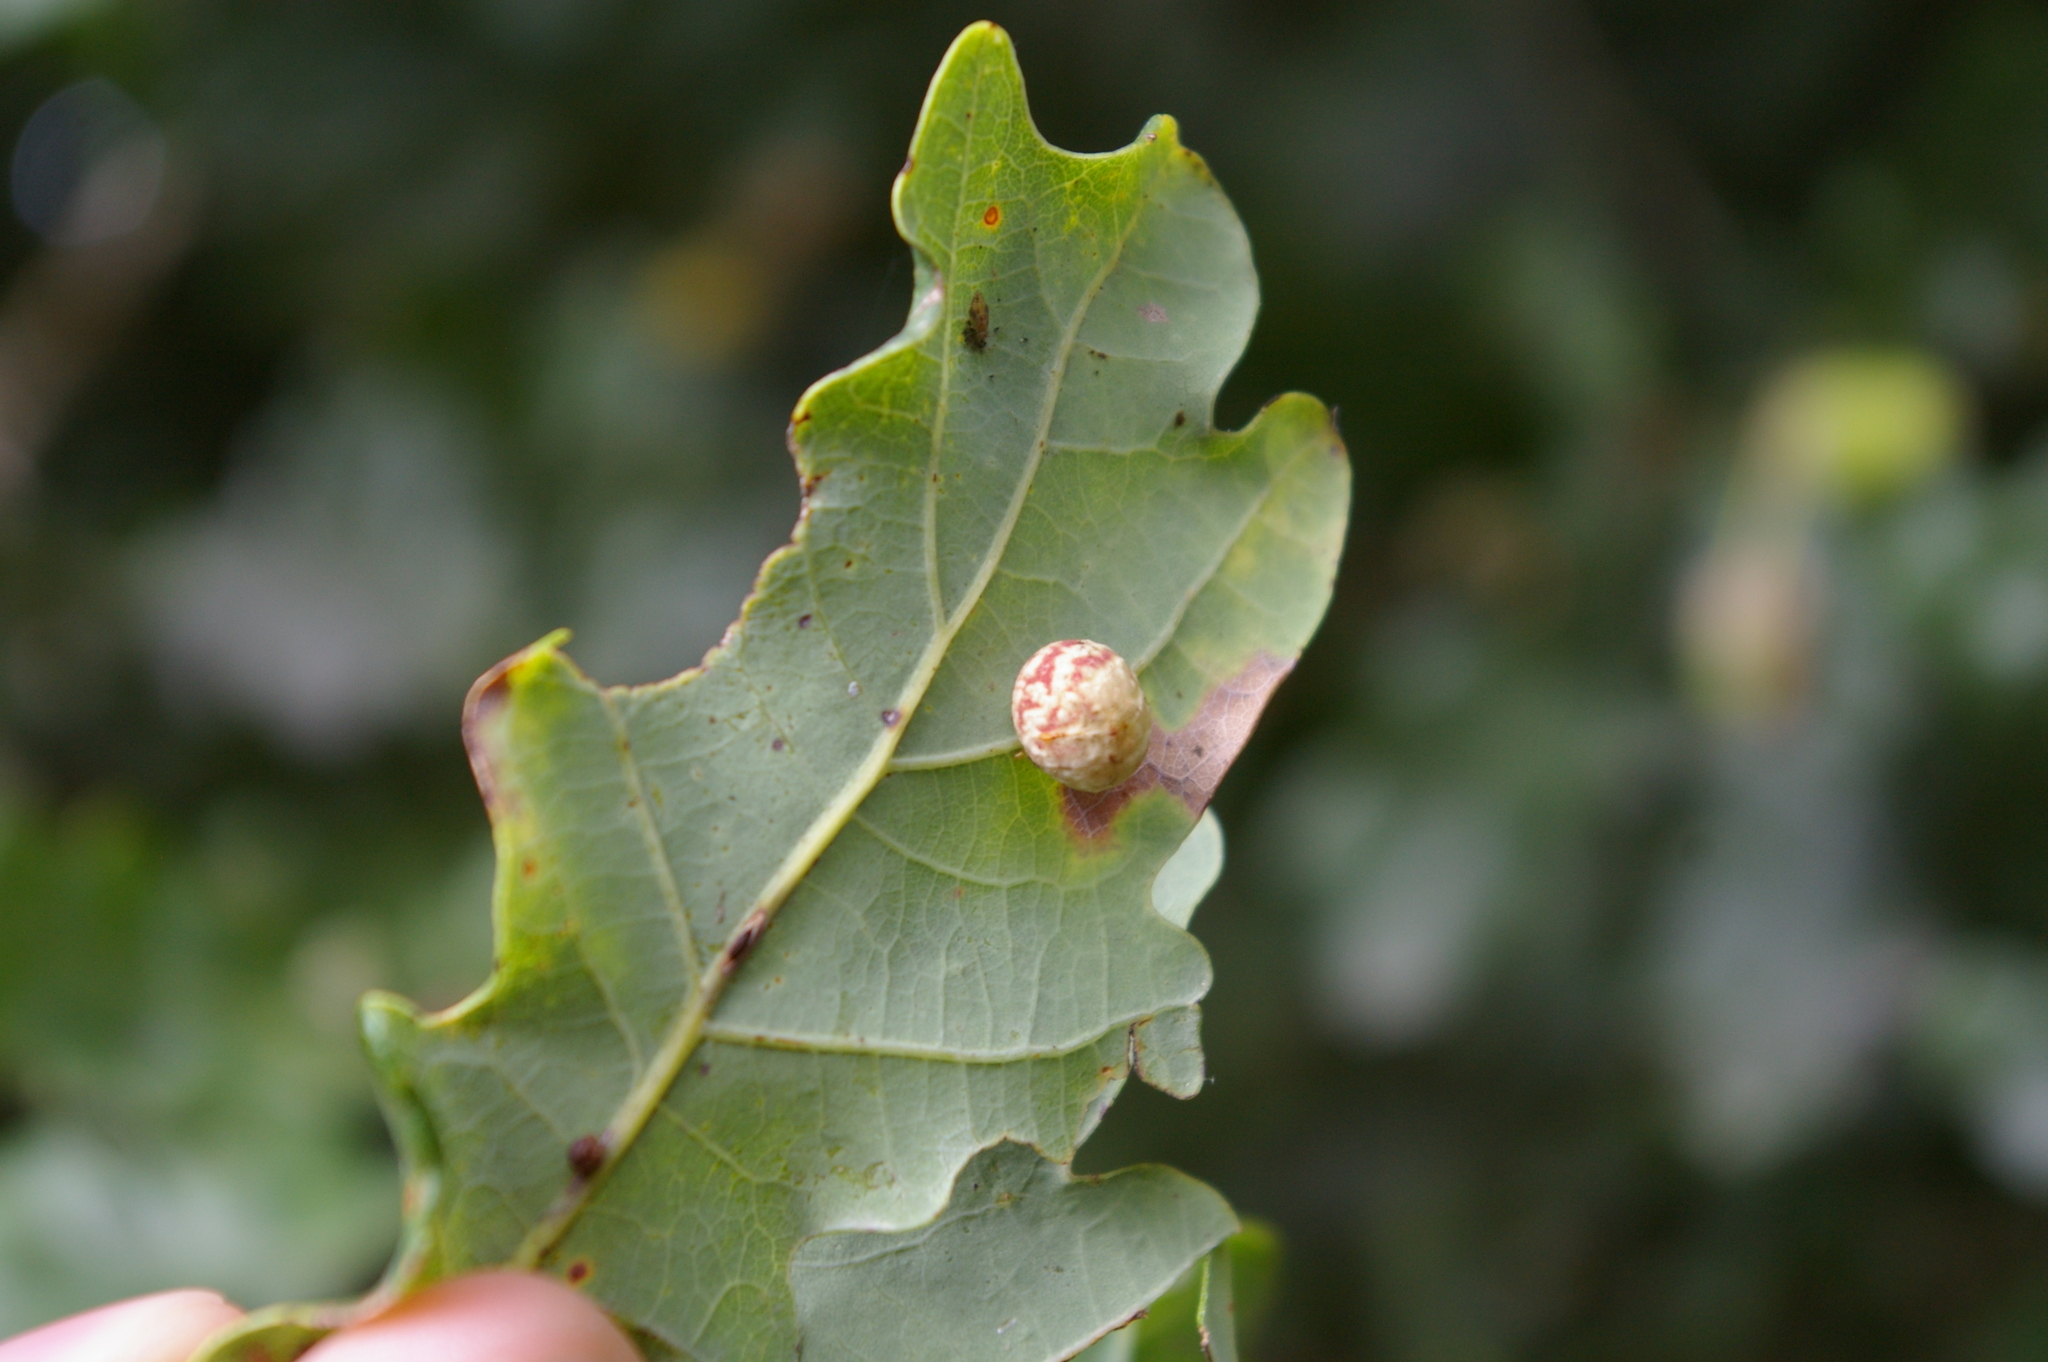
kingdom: Animalia
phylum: Arthropoda
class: Insecta
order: Hymenoptera
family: Cynipidae
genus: Cynips
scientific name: Cynips longiventris
